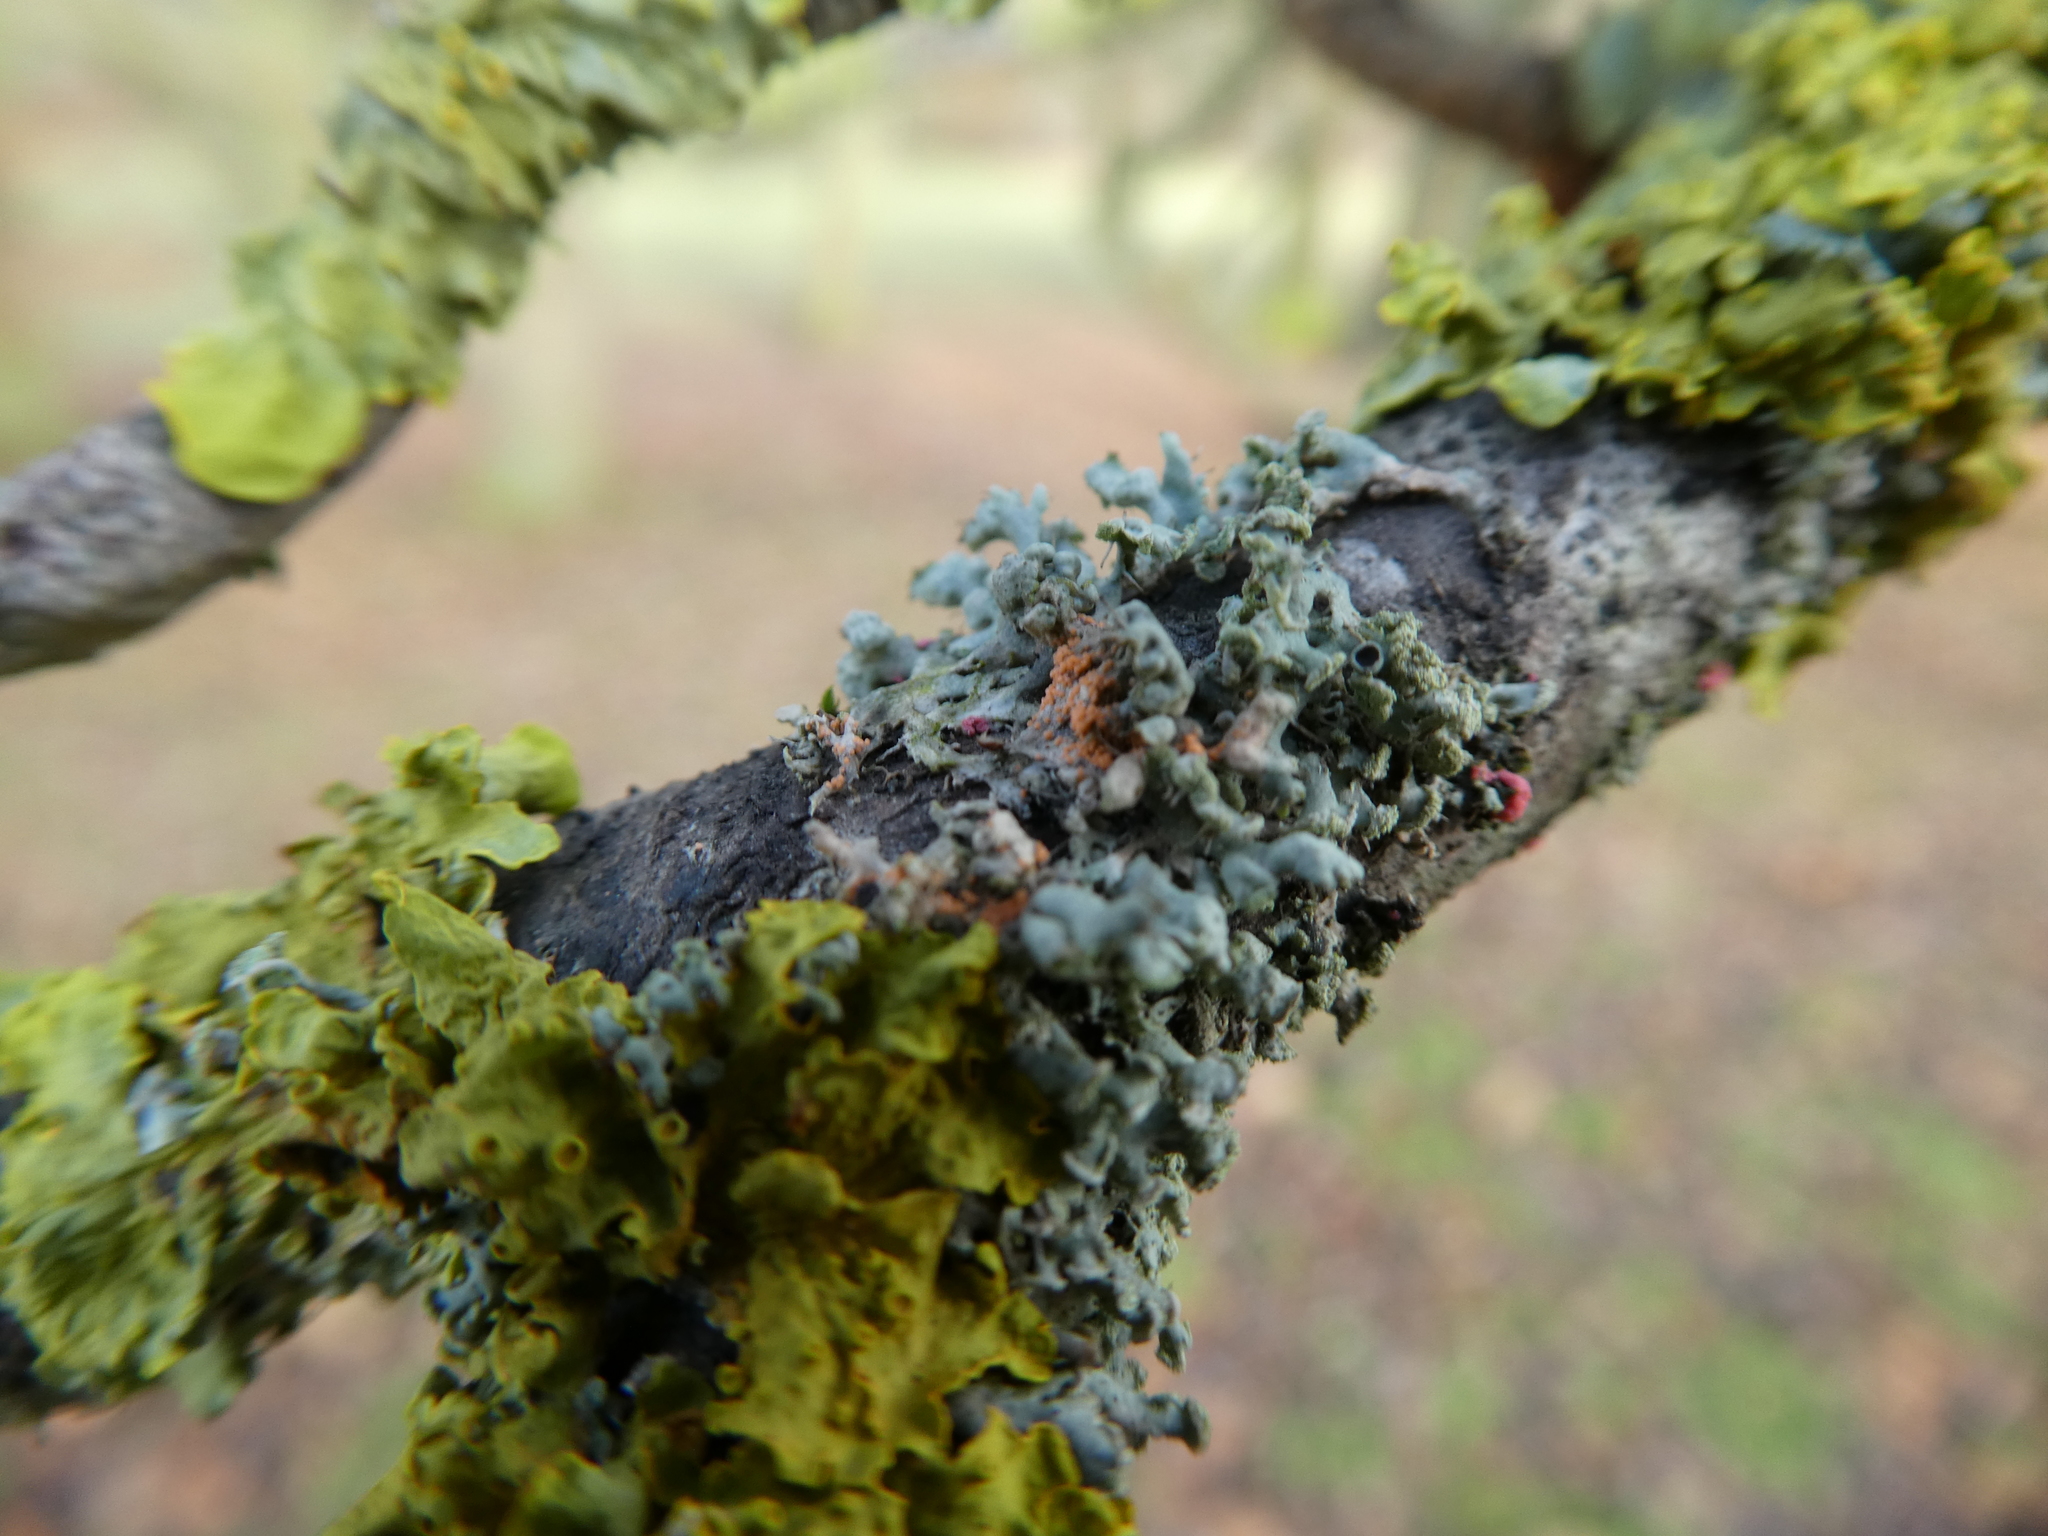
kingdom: Fungi
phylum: Ascomycota
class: Sordariomycetes
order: Hypocreales
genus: Illosporiopsis
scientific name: Illosporiopsis christiansenii
